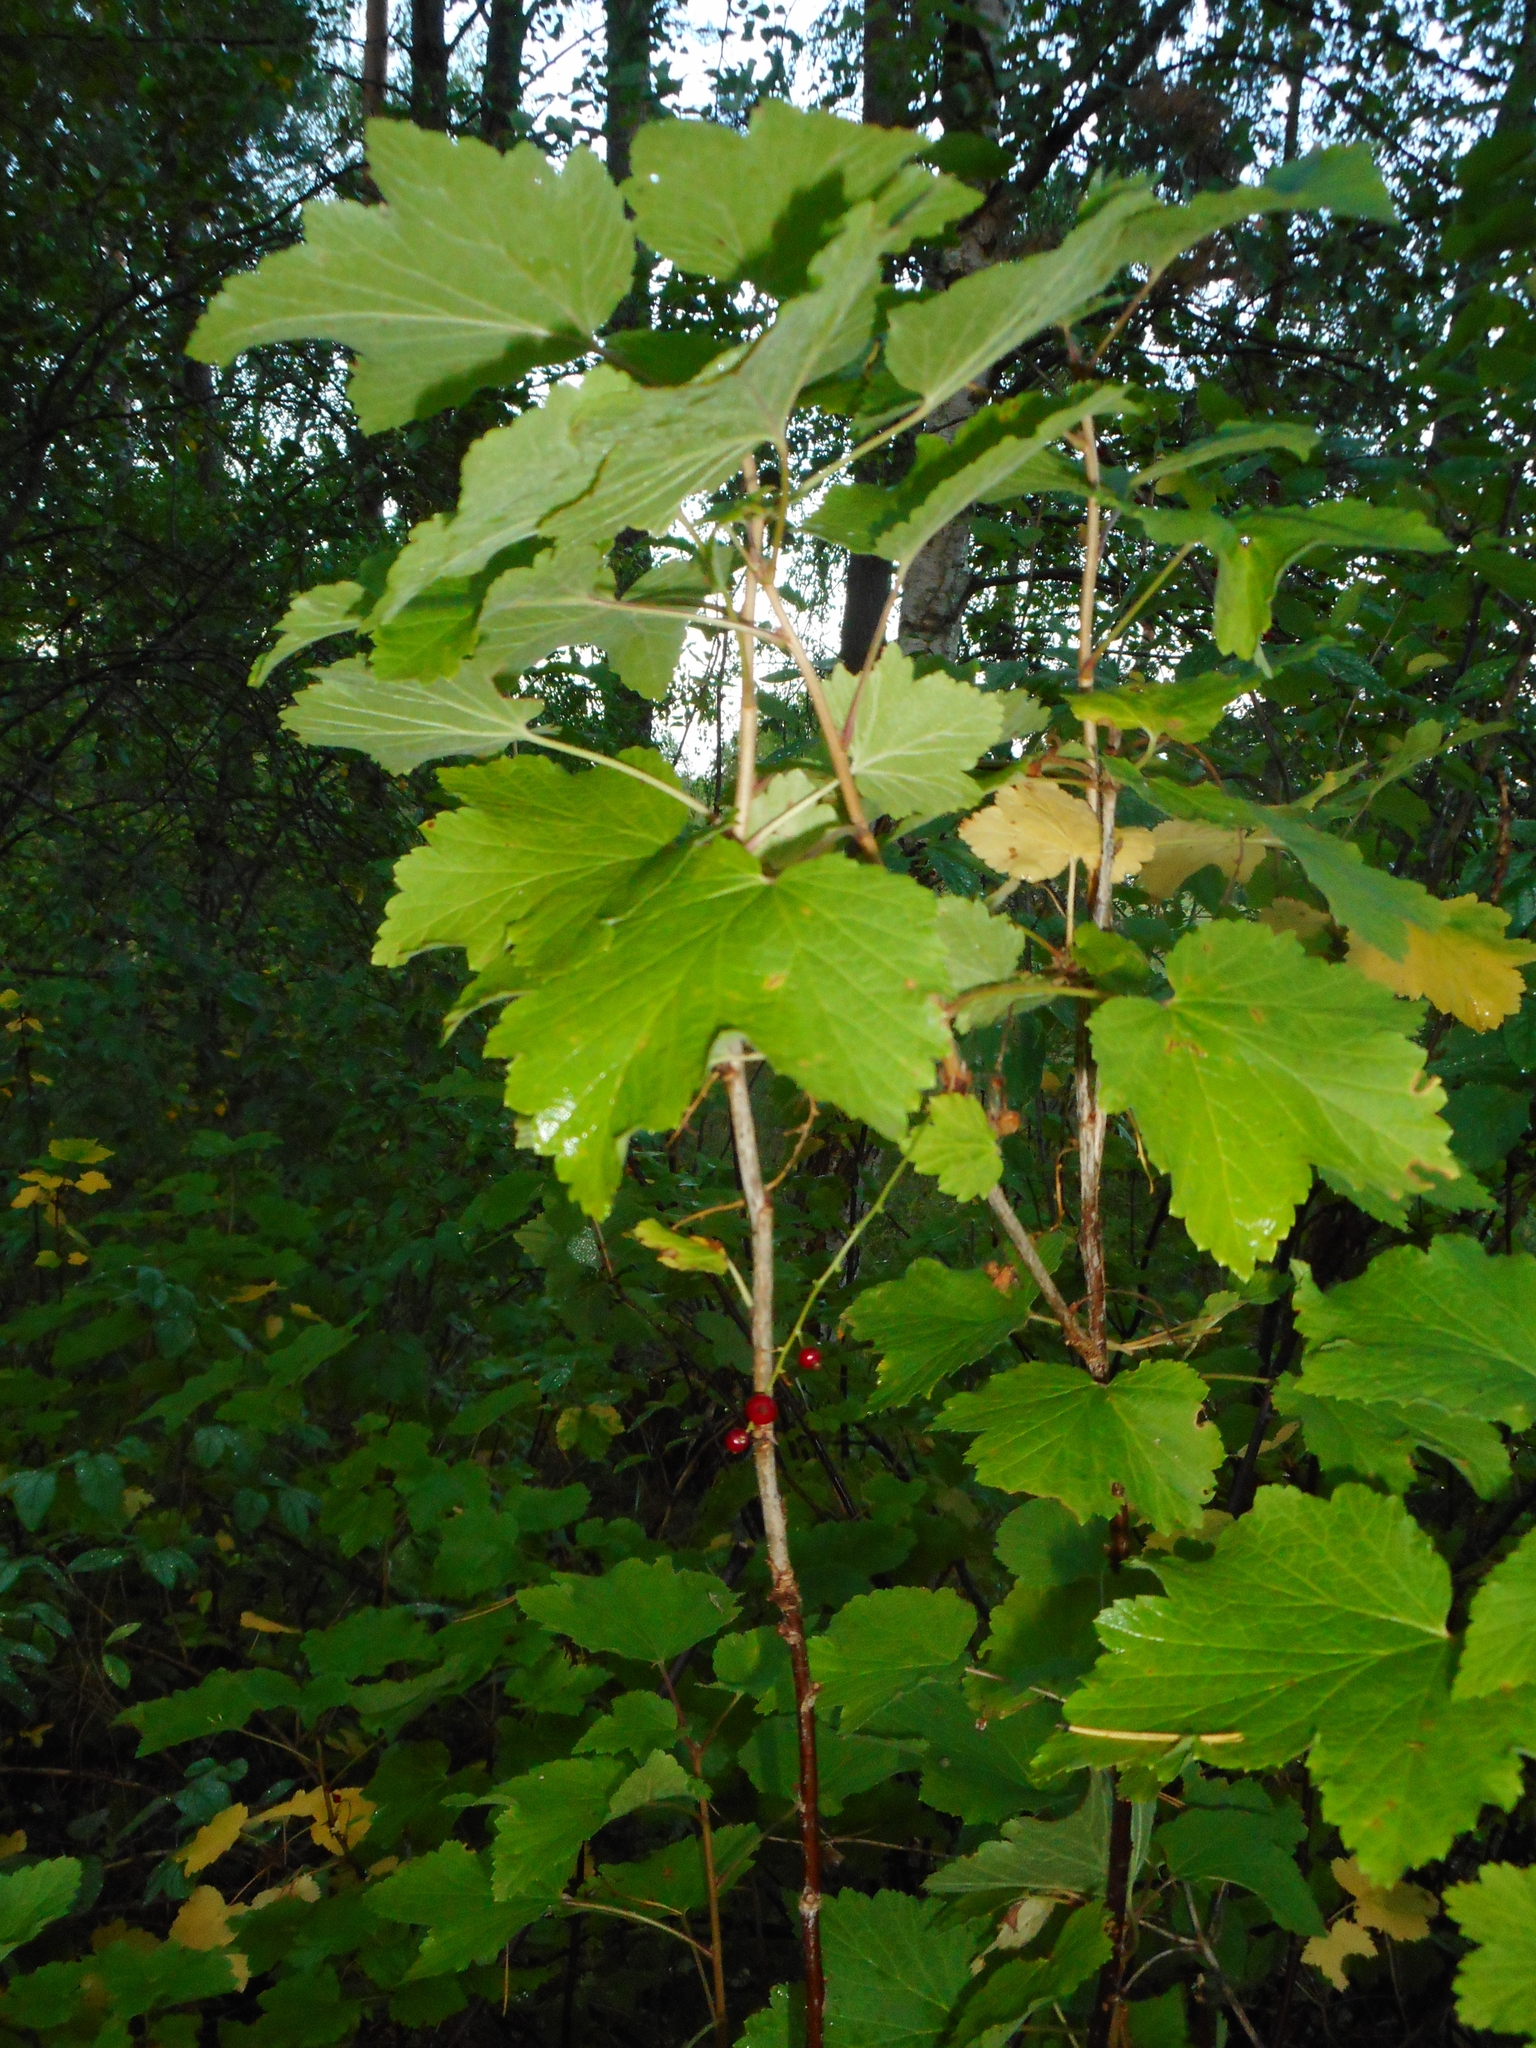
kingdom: Plantae
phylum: Tracheophyta
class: Magnoliopsida
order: Saxifragales
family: Grossulariaceae
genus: Ribes
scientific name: Ribes spicatum
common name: Downy currant
